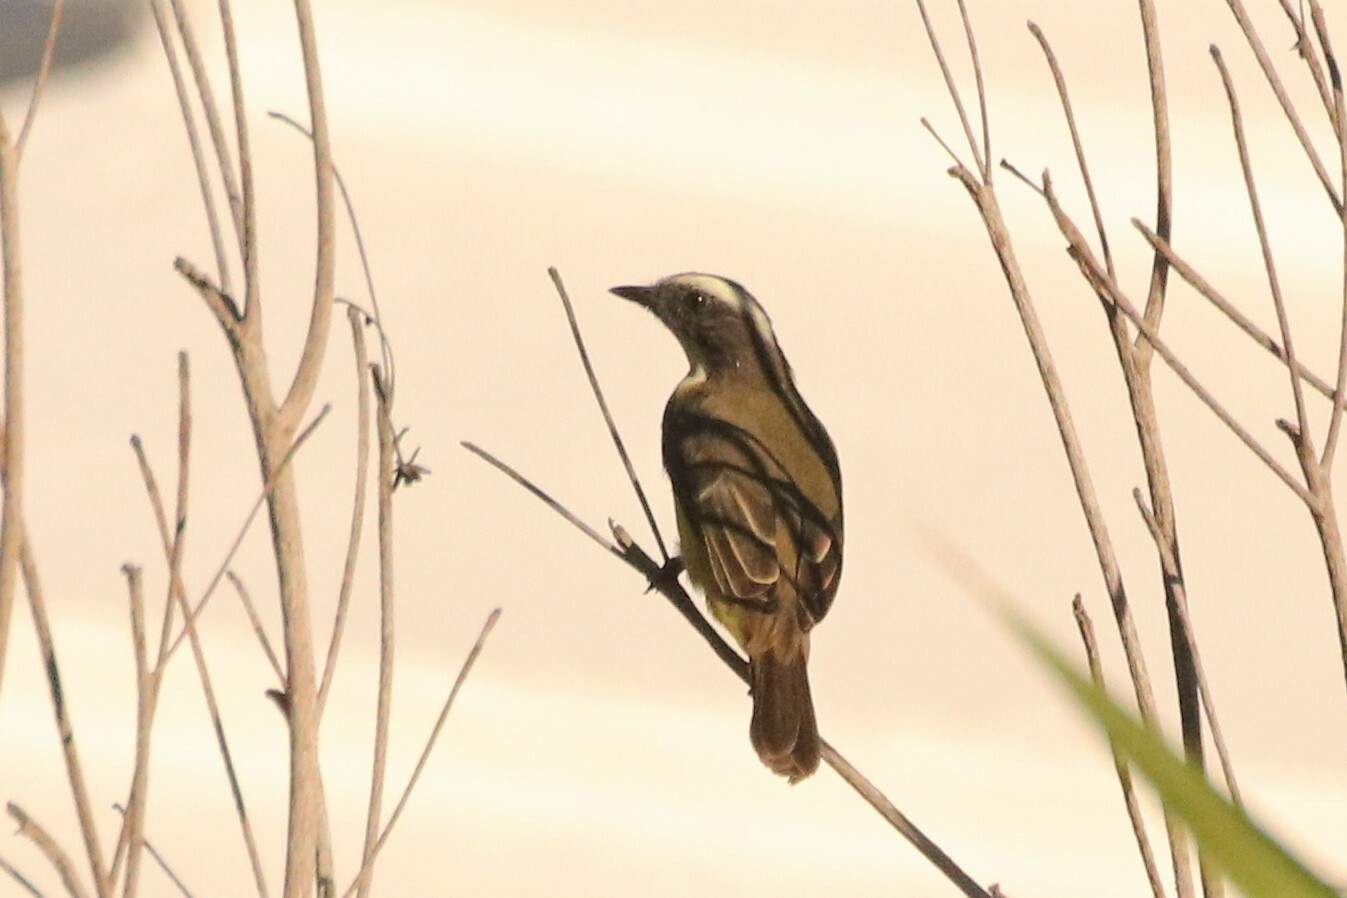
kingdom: Animalia
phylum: Chordata
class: Aves
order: Passeriformes
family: Tyrannidae
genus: Myiozetetes
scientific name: Myiozetetes similis
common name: Social flycatcher
